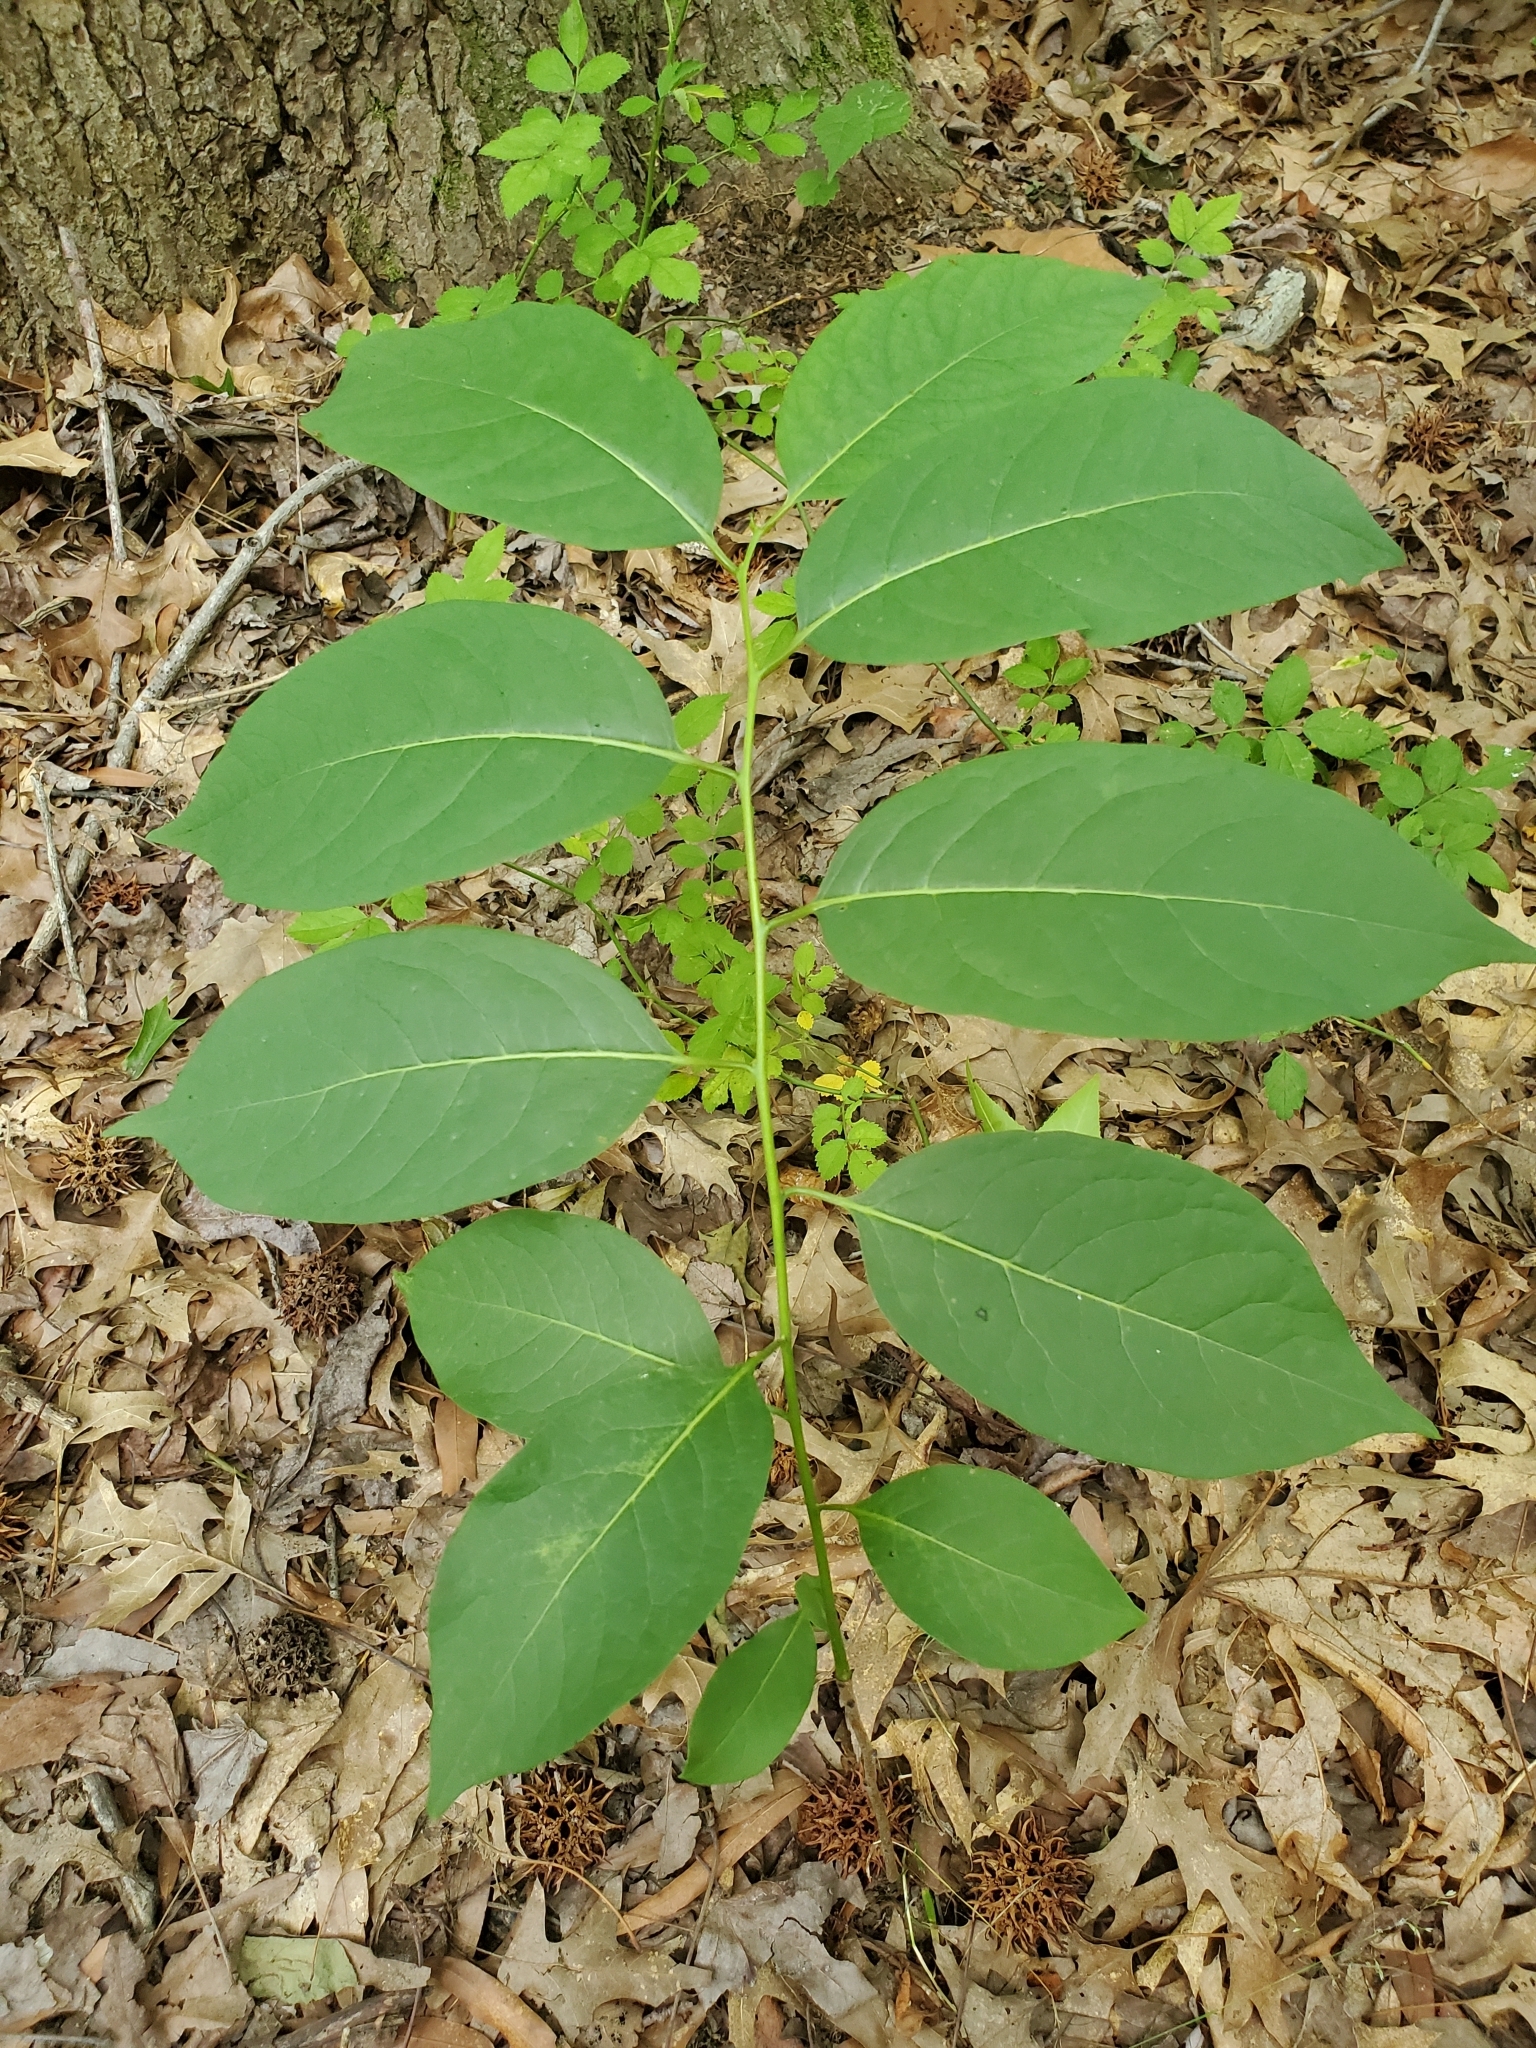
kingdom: Plantae
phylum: Tracheophyta
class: Magnoliopsida
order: Ericales
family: Ebenaceae
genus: Diospyros
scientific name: Diospyros virginiana
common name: Persimmon
